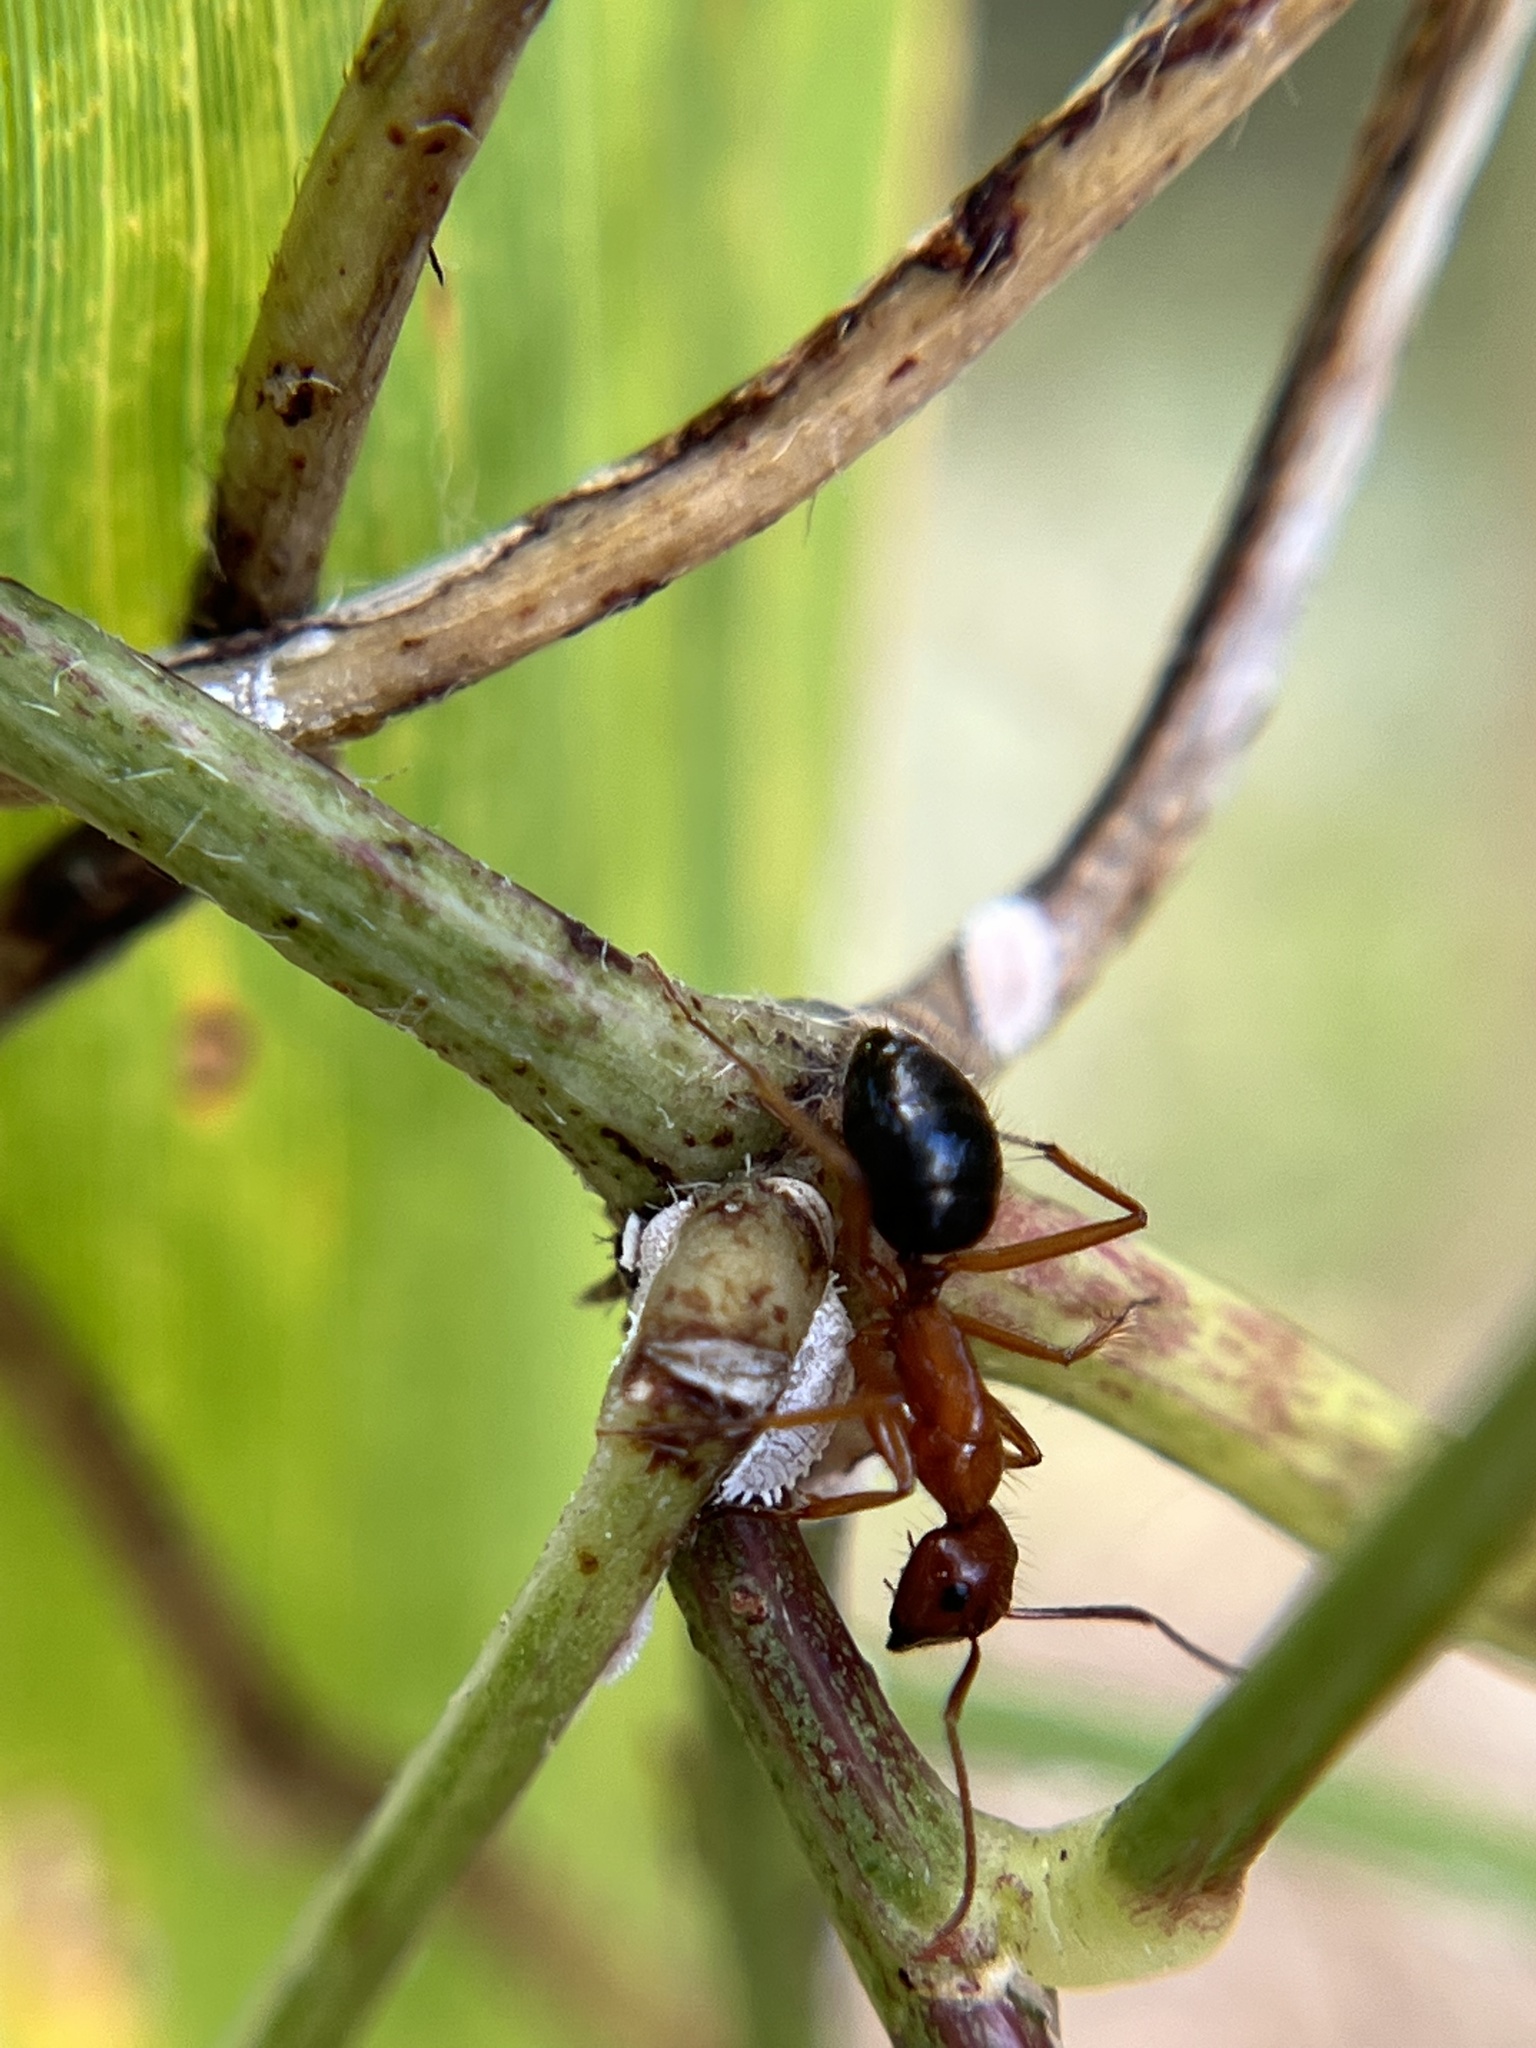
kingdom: Animalia
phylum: Arthropoda
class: Insecta
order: Hymenoptera
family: Formicidae
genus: Camponotus
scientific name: Camponotus floridanus
